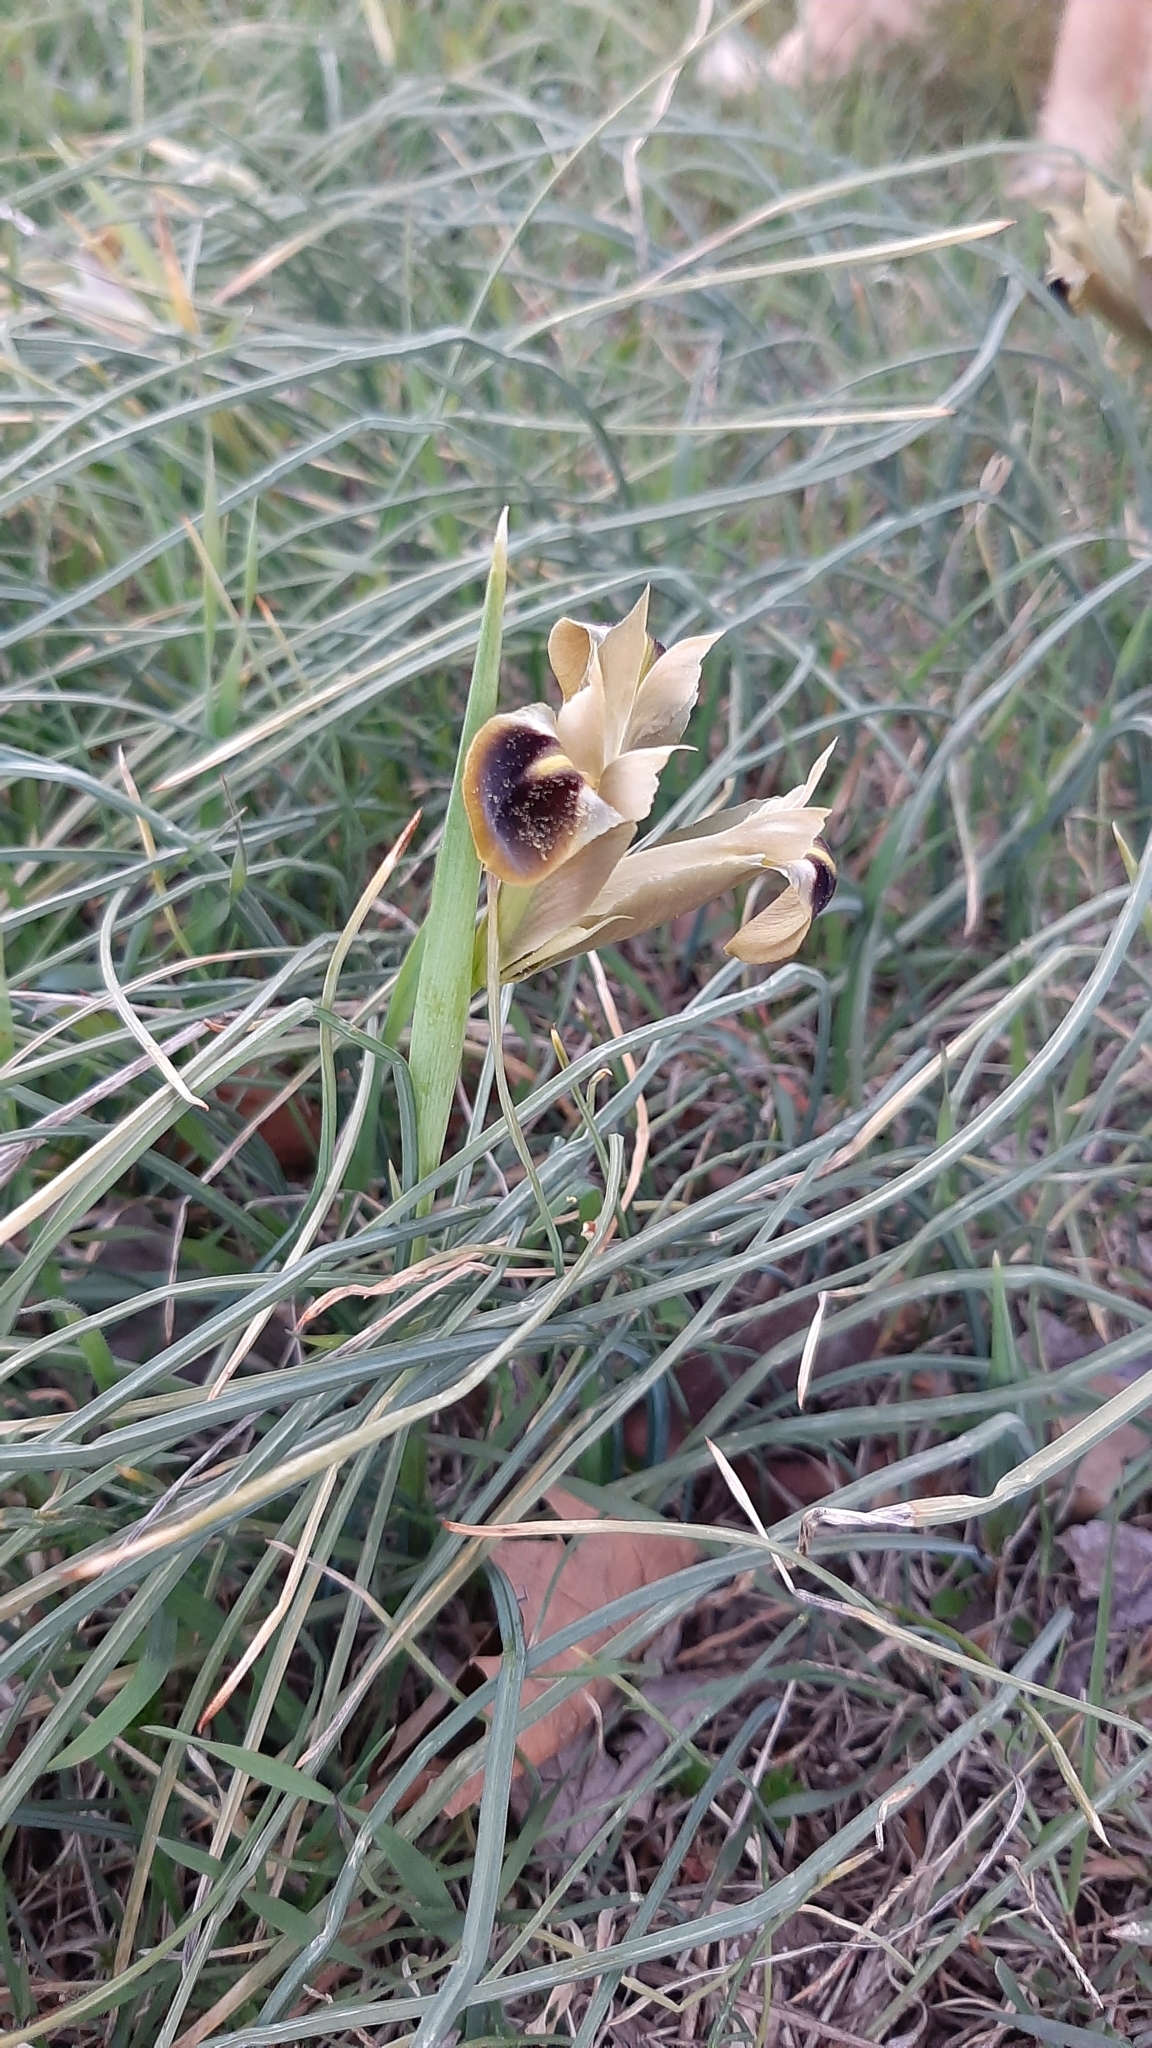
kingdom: Plantae
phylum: Tracheophyta
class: Liliopsida
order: Asparagales
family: Iridaceae
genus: Iris
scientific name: Iris tuberosa
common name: Snake's-head iris
